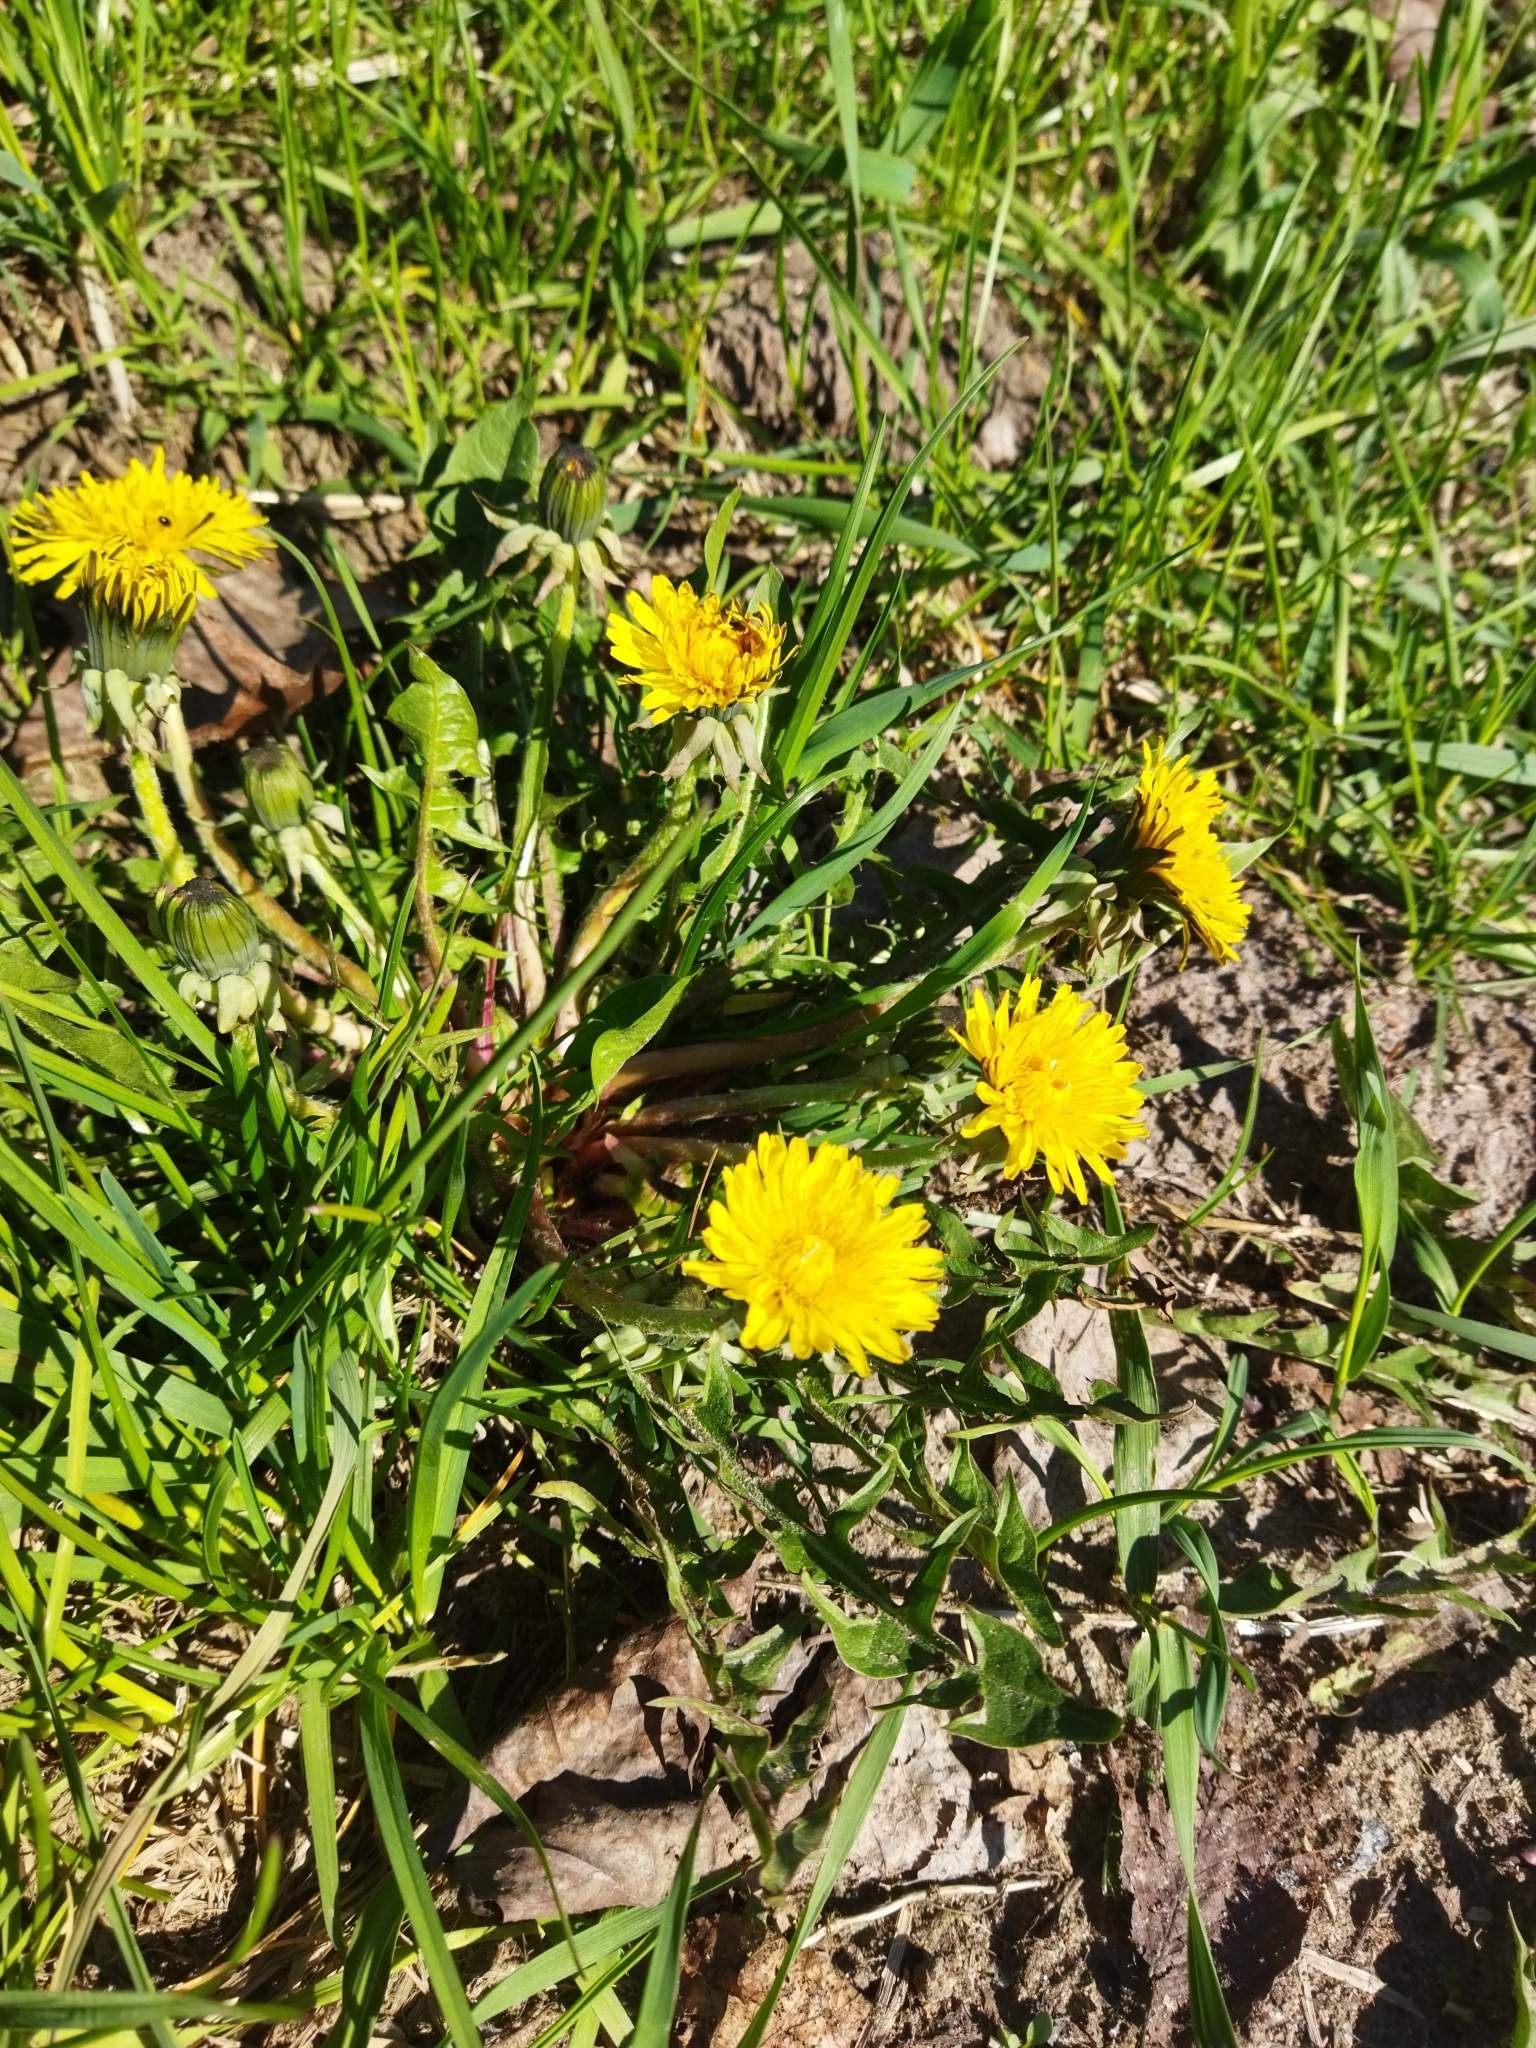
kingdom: Plantae
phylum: Tracheophyta
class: Magnoliopsida
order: Asterales
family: Asteraceae
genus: Taraxacum
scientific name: Taraxacum officinale
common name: Common dandelion
